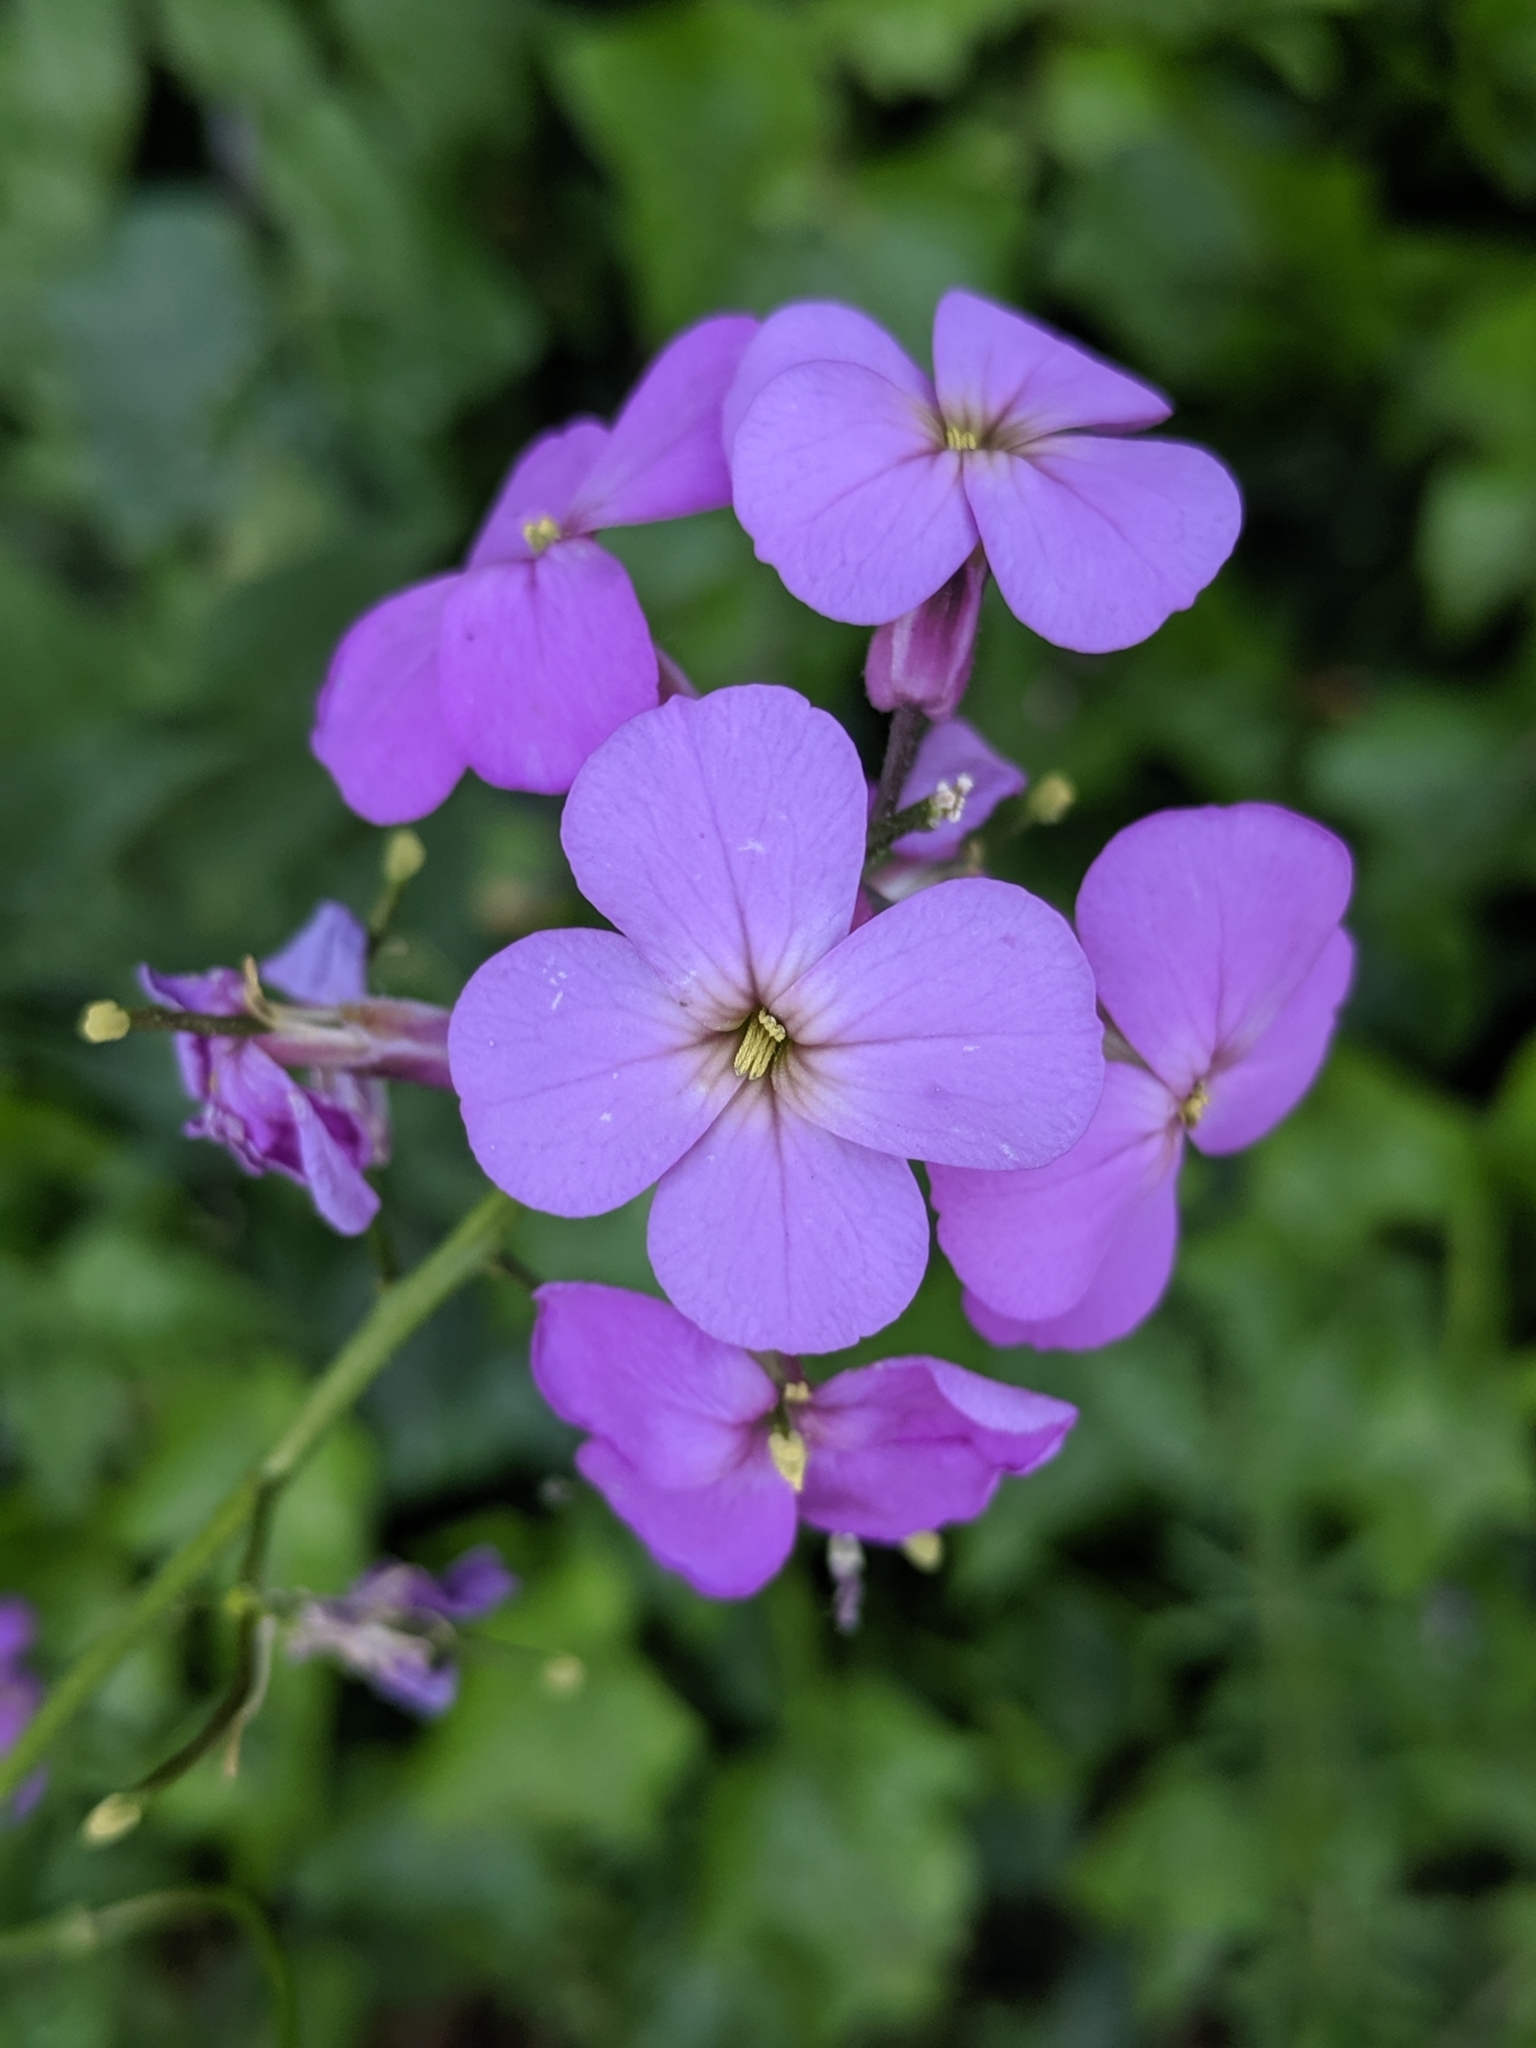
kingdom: Plantae
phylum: Tracheophyta
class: Magnoliopsida
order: Brassicales
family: Brassicaceae
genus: Hesperis
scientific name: Hesperis matronalis
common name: Dame's-violet
